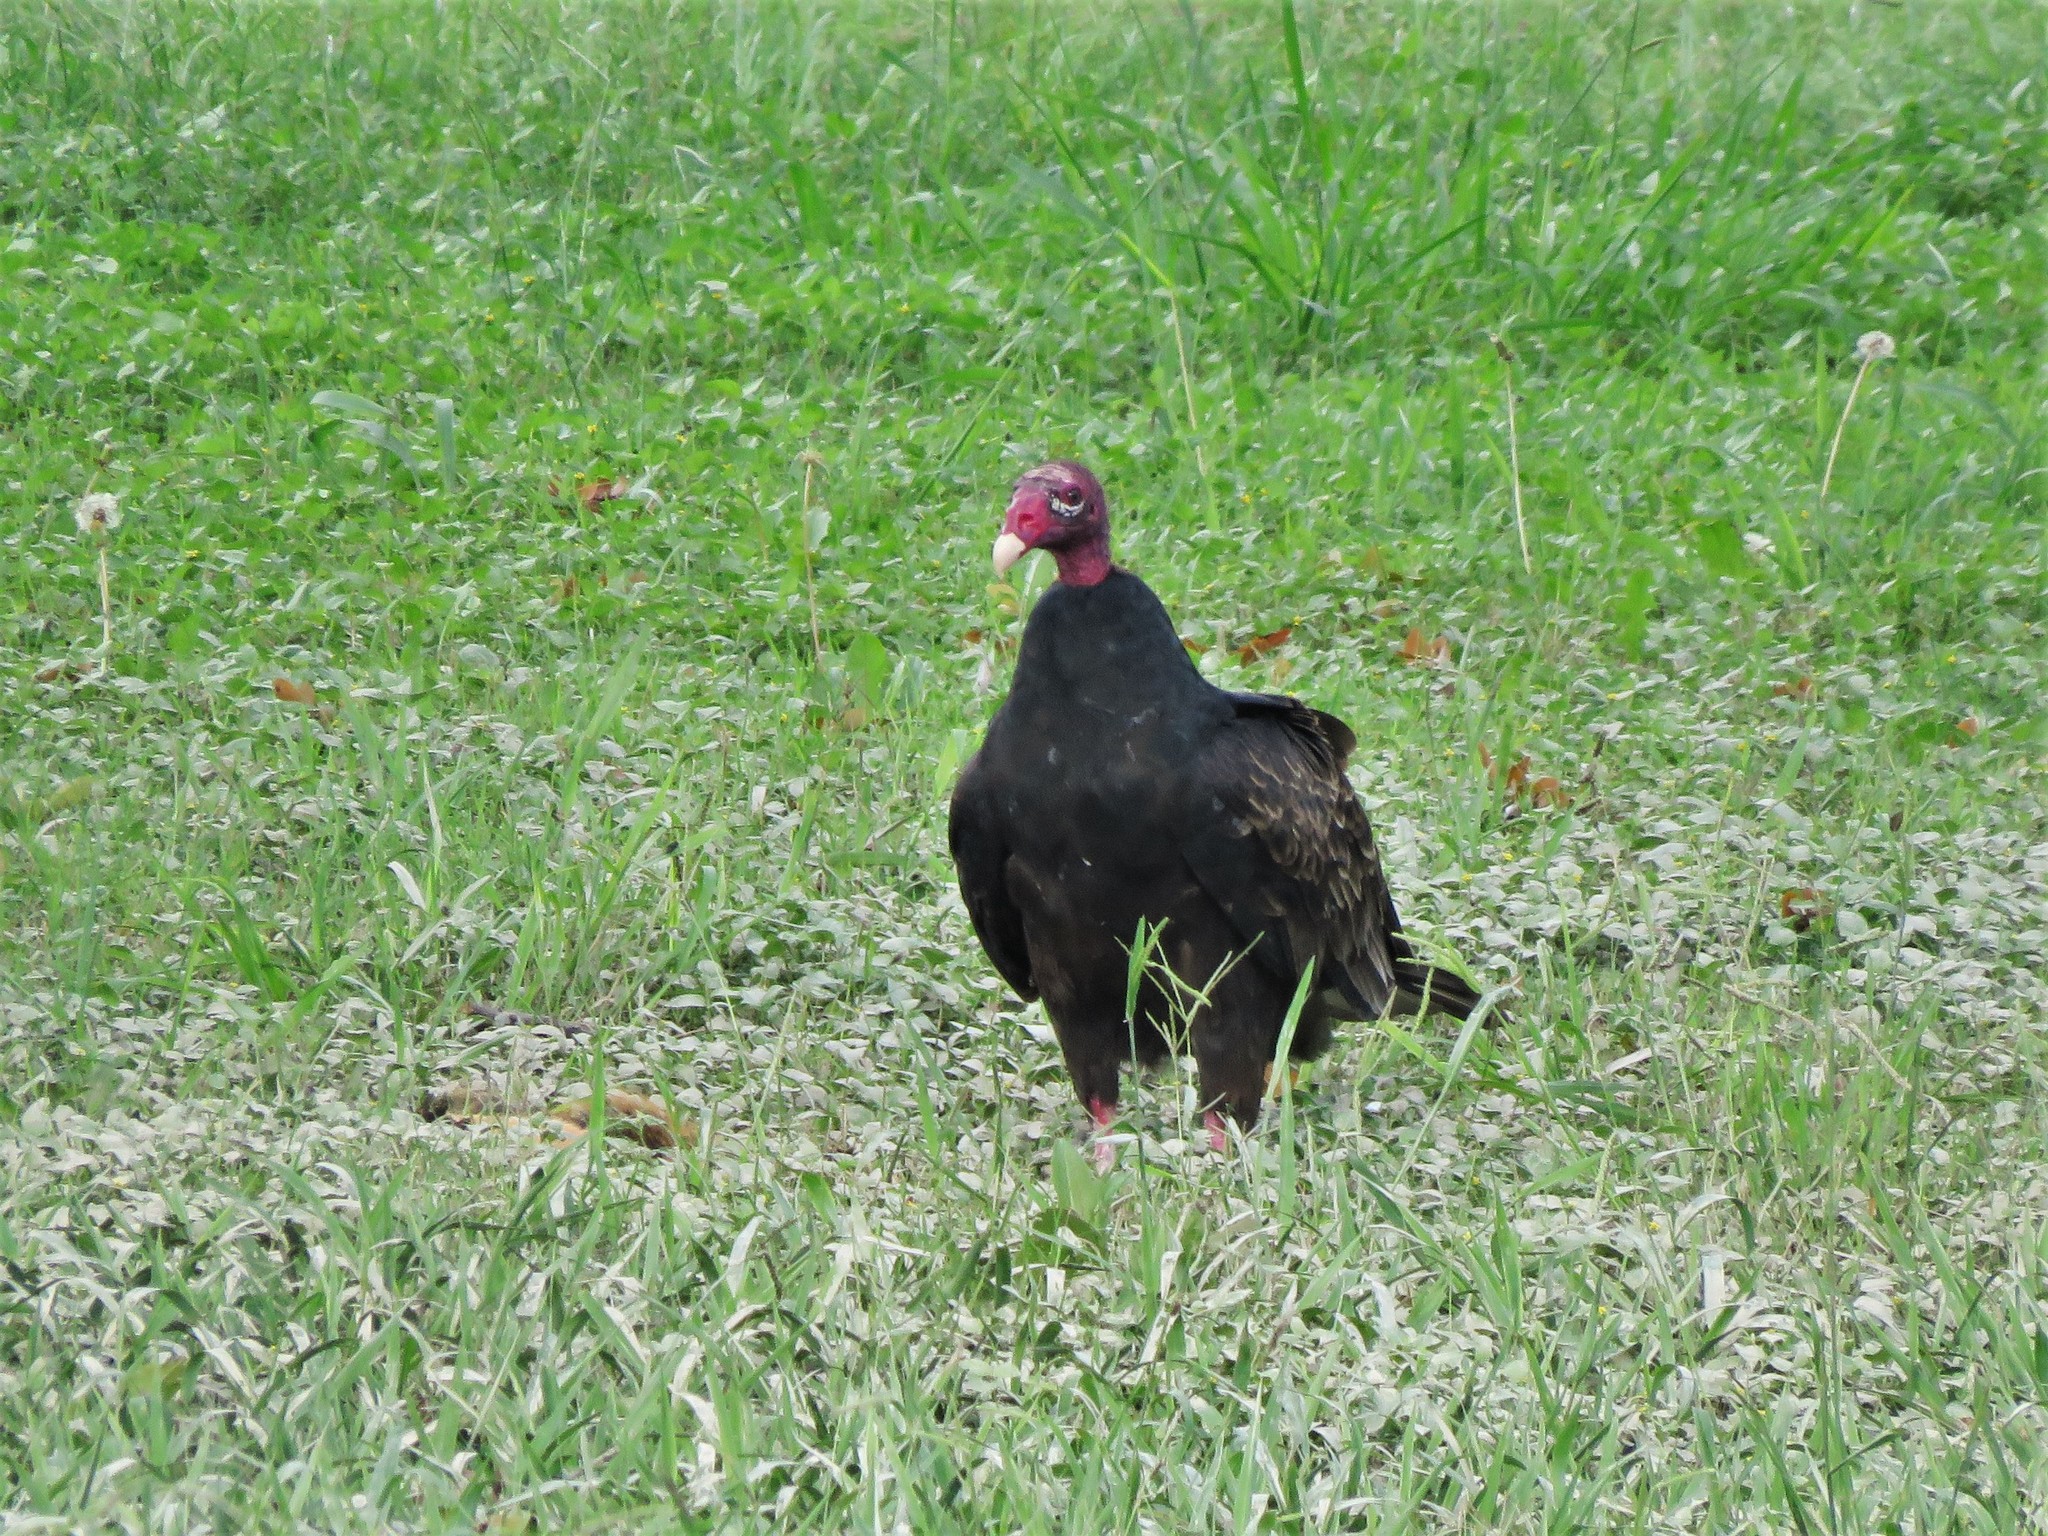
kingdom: Animalia
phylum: Chordata
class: Aves
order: Accipitriformes
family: Cathartidae
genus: Cathartes
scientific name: Cathartes aura
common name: Turkey vulture
